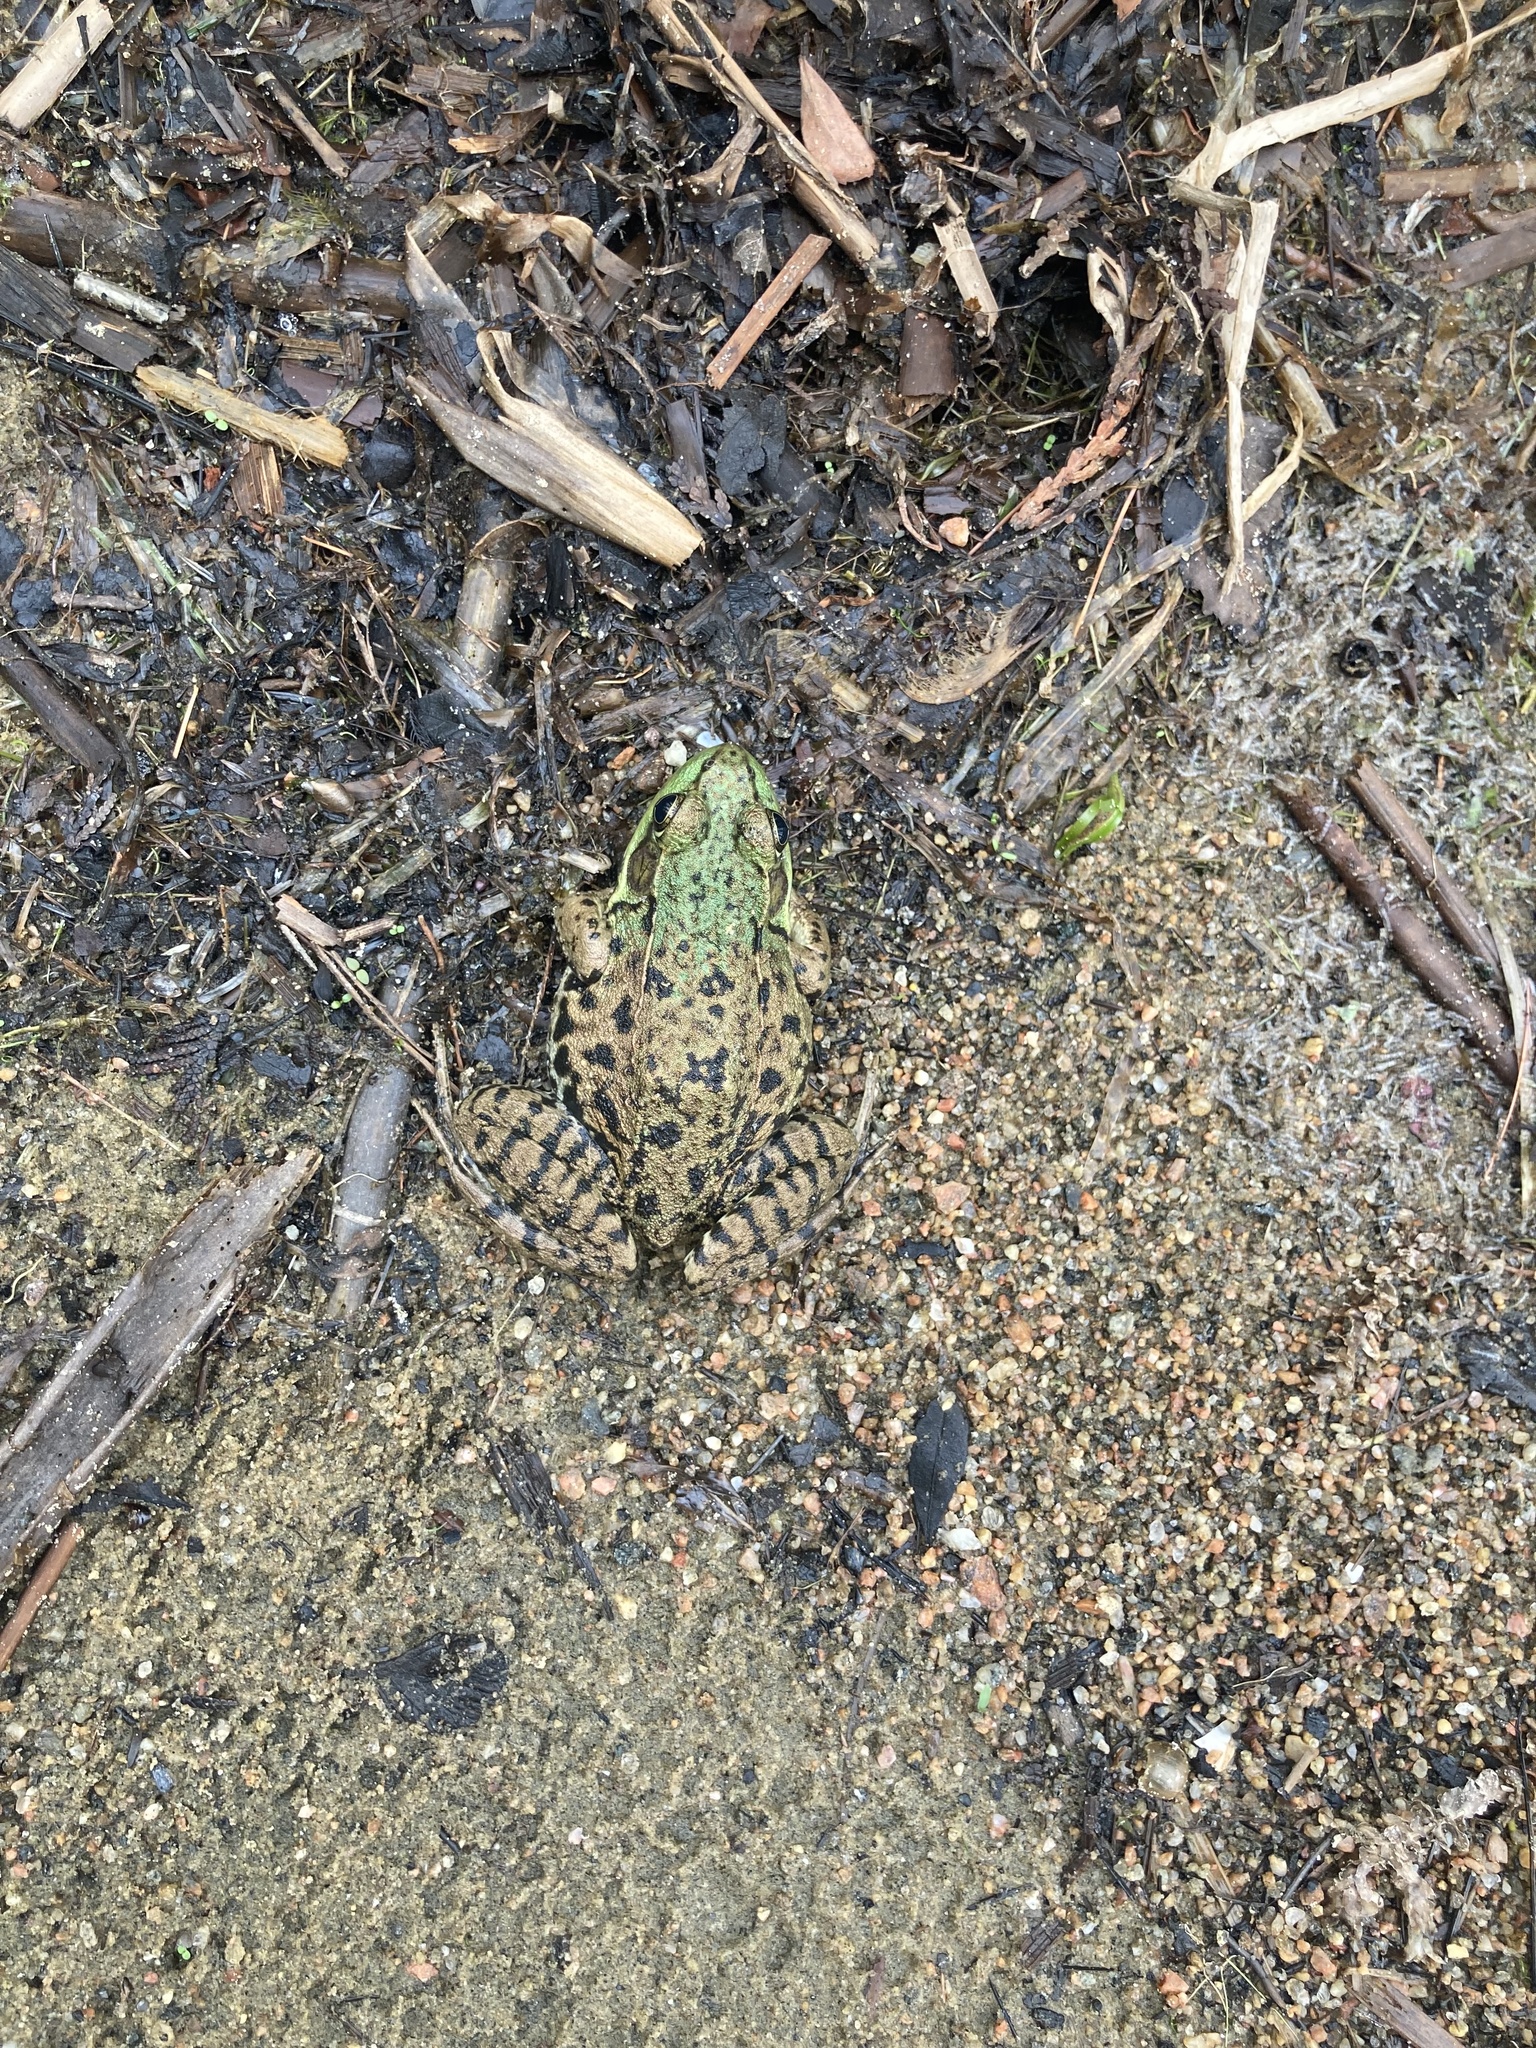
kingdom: Animalia
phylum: Chordata
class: Amphibia
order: Anura
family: Ranidae
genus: Lithobates
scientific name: Lithobates clamitans
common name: Green frog
